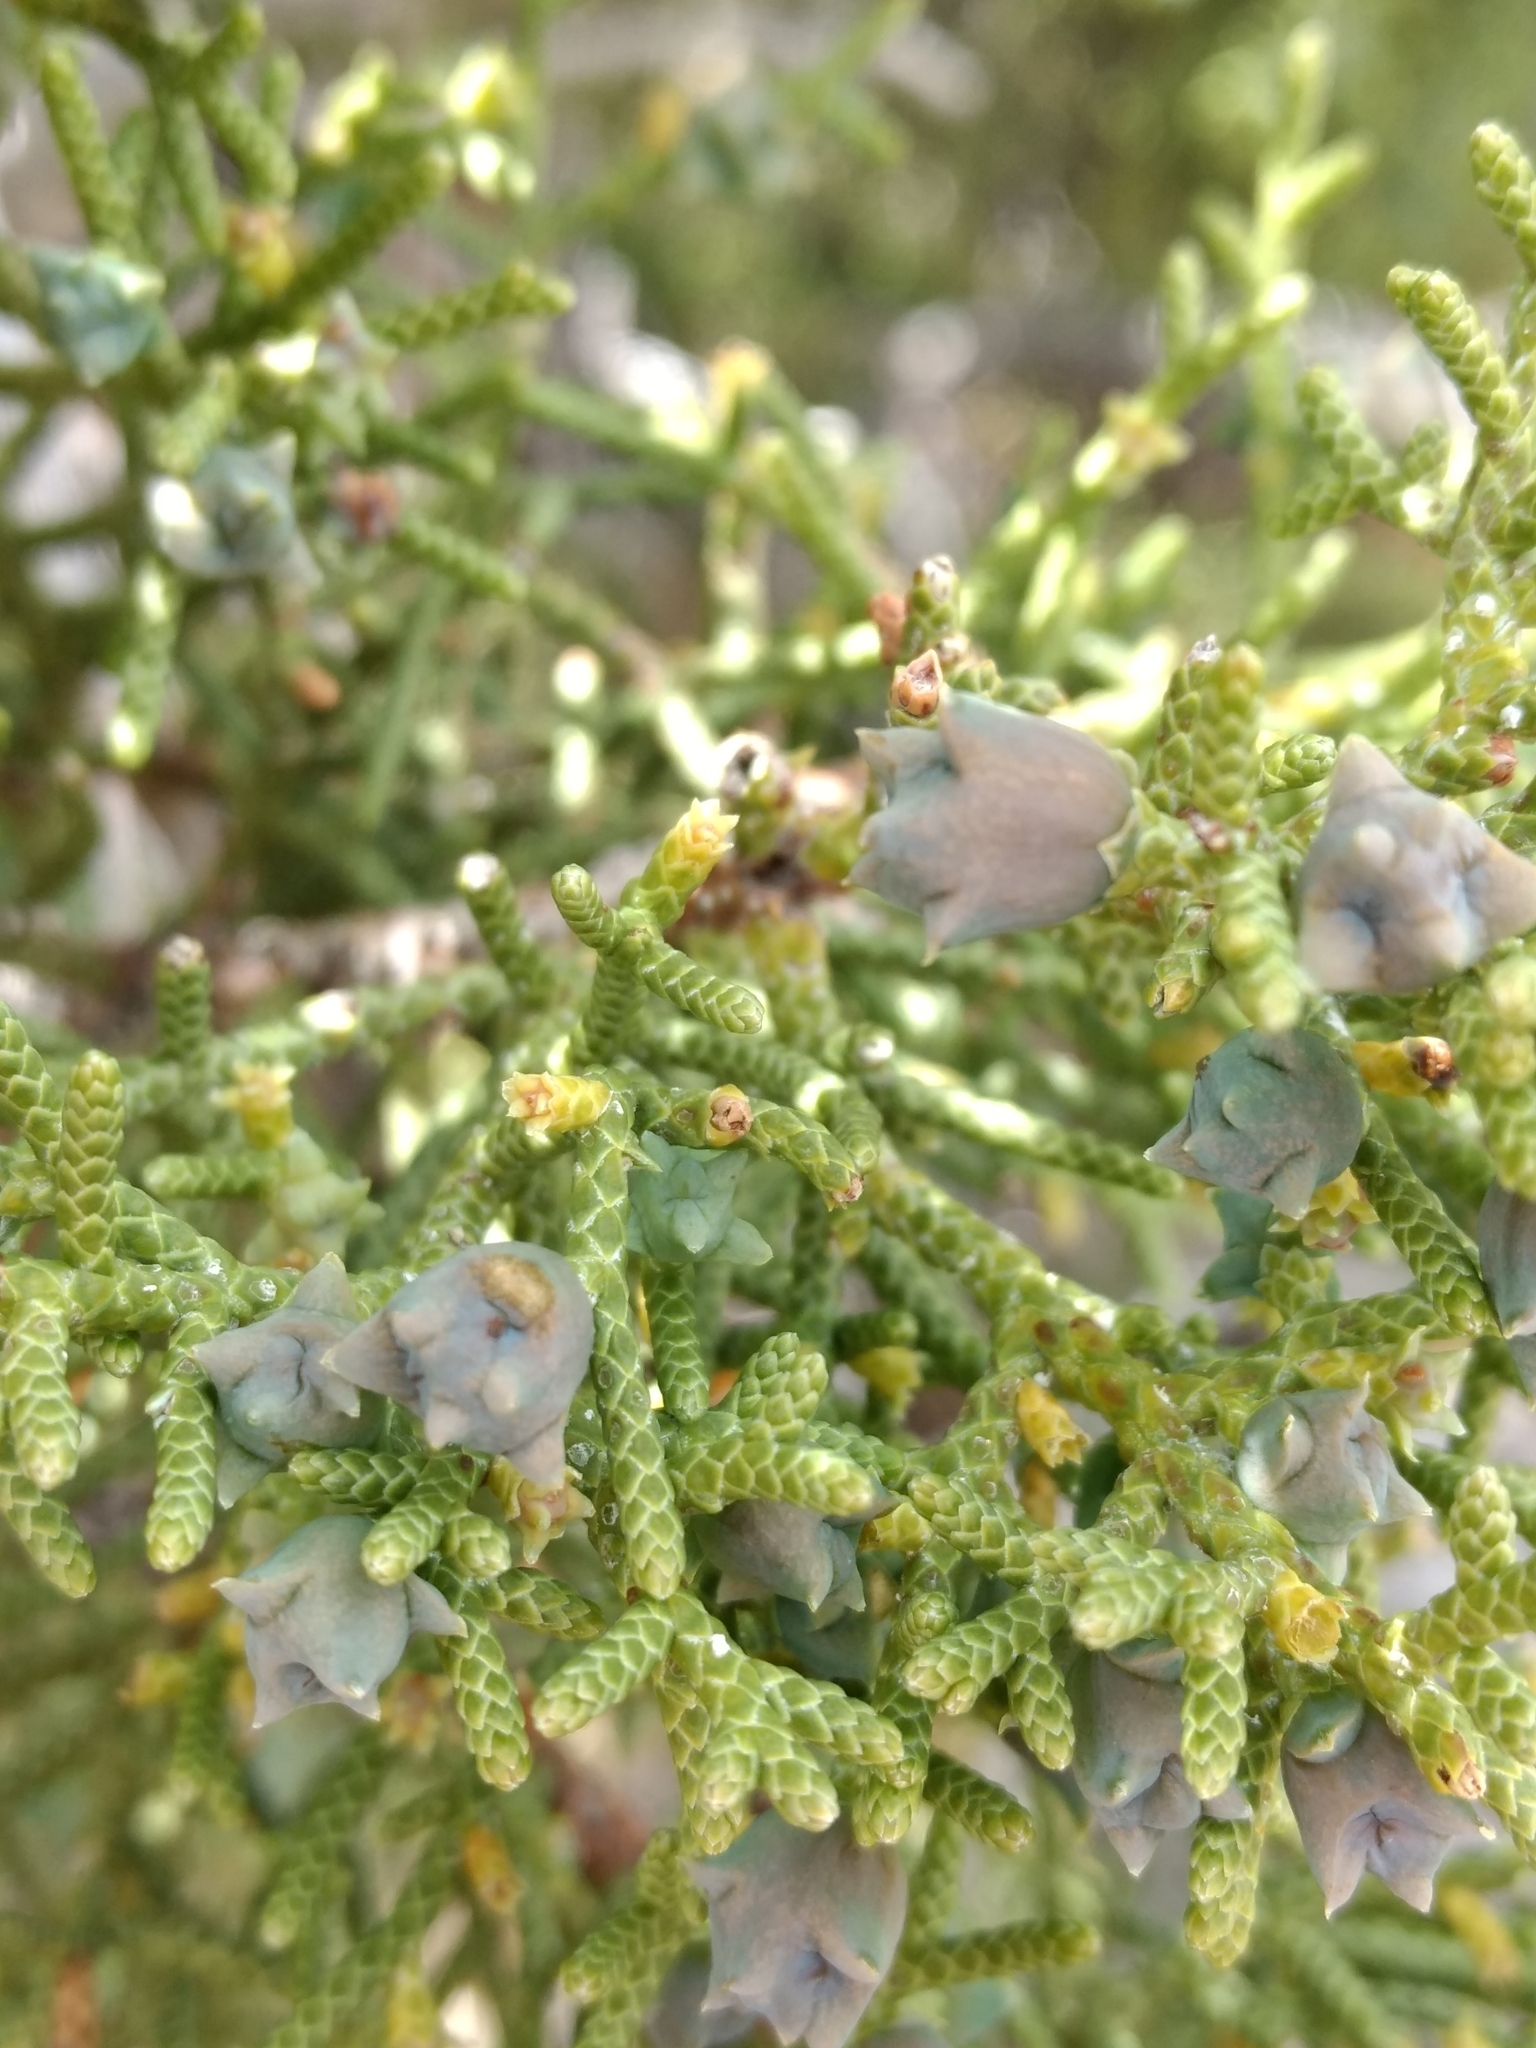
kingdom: Plantae
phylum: Tracheophyta
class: Pinopsida
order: Pinales
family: Cupressaceae
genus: Juniperus
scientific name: Juniperus californica
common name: California juniper
